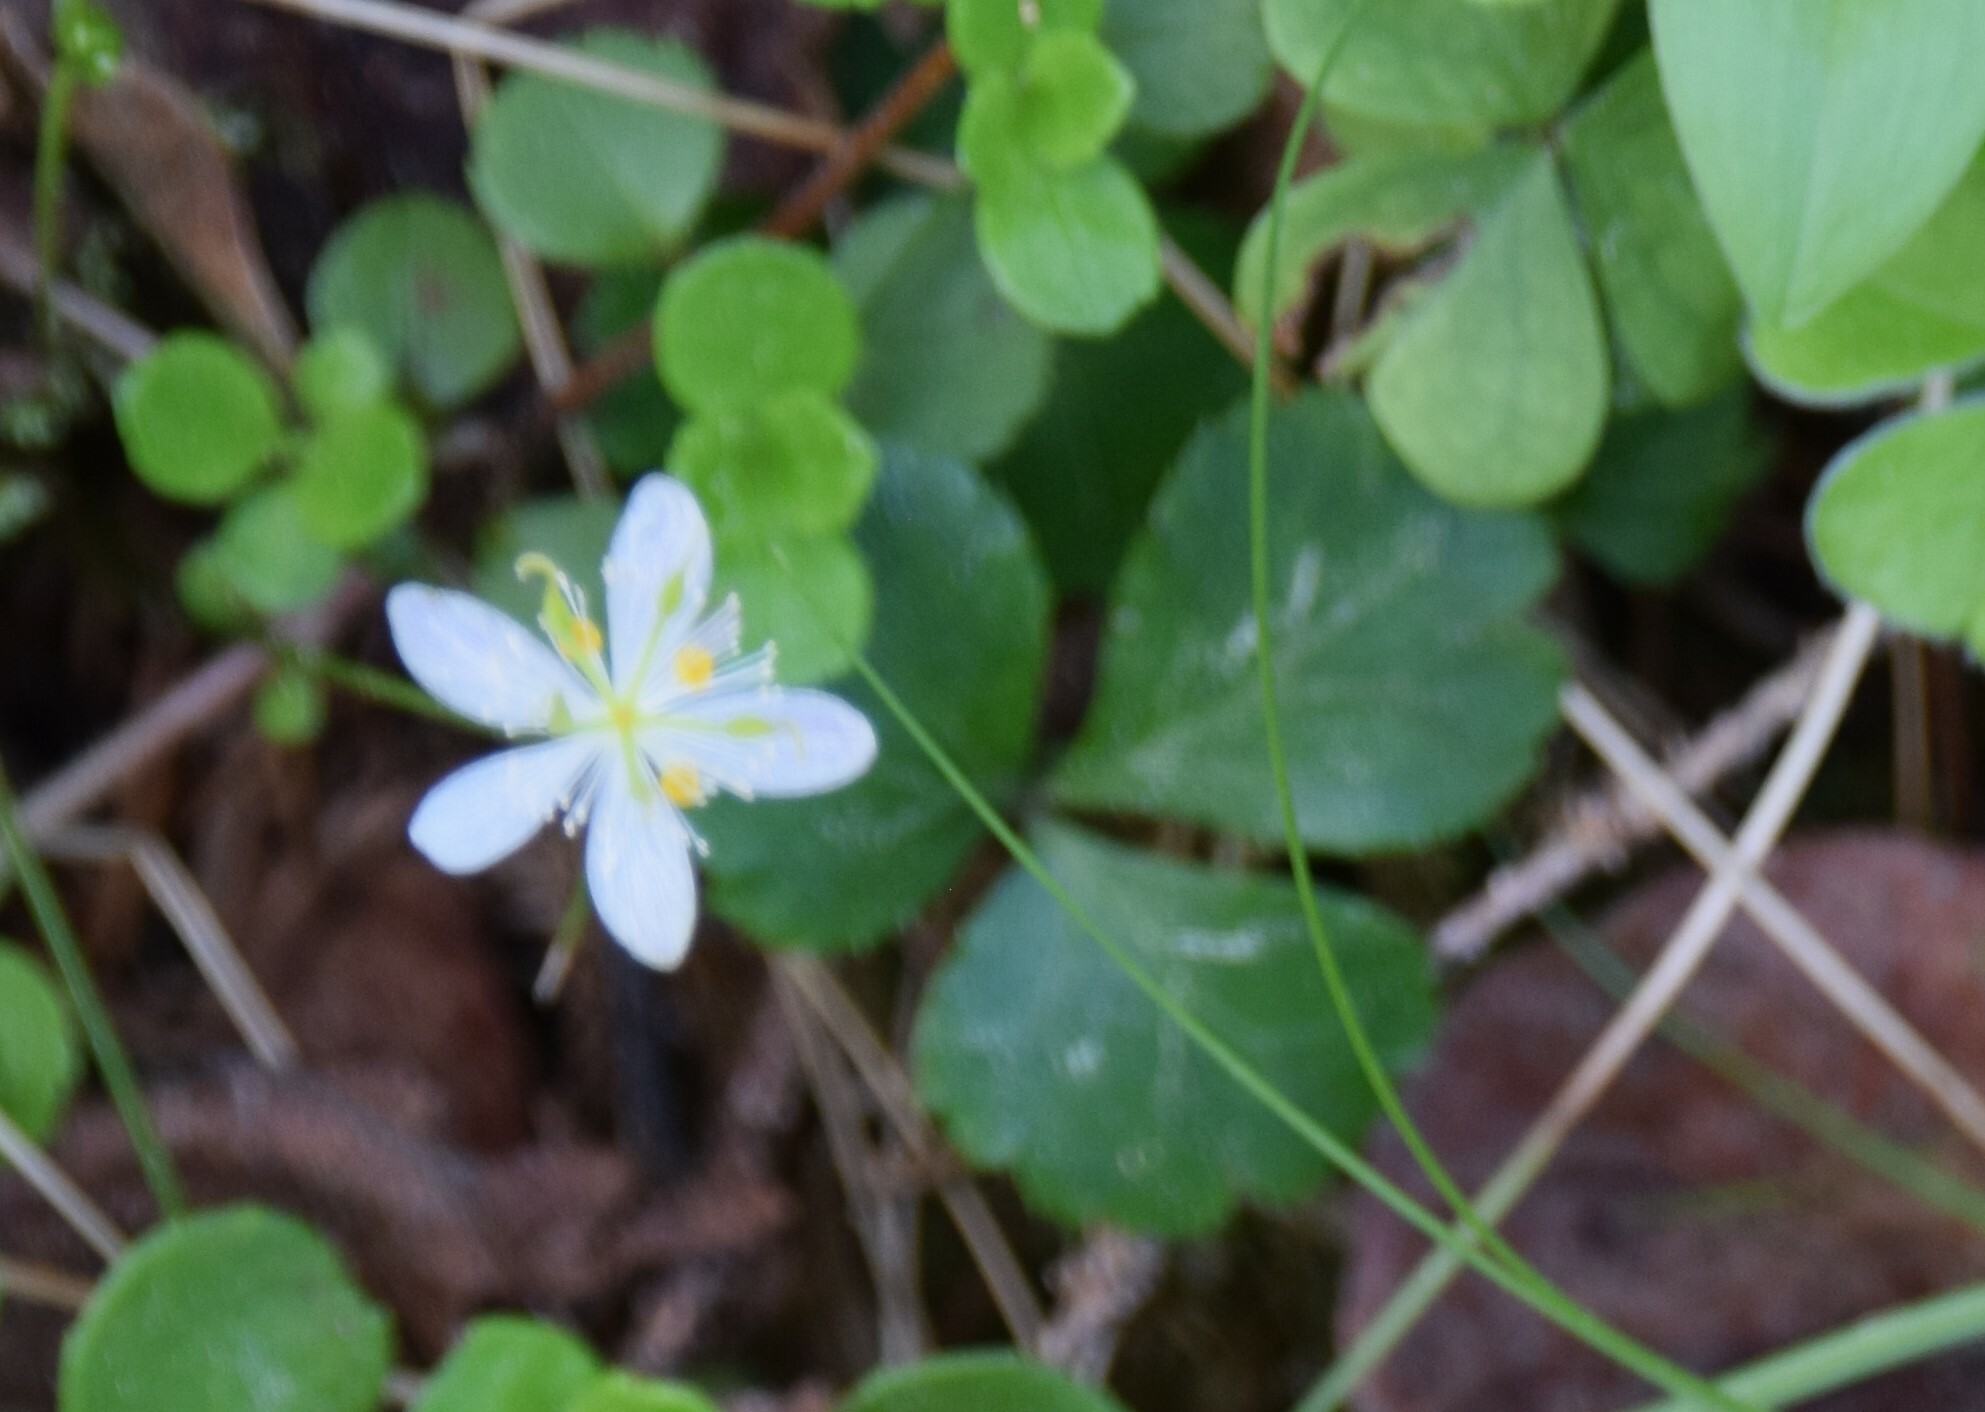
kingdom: Plantae
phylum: Tracheophyta
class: Magnoliopsida
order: Ranunculales
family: Ranunculaceae
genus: Coptis
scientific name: Coptis trifolia
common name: Canker-root
